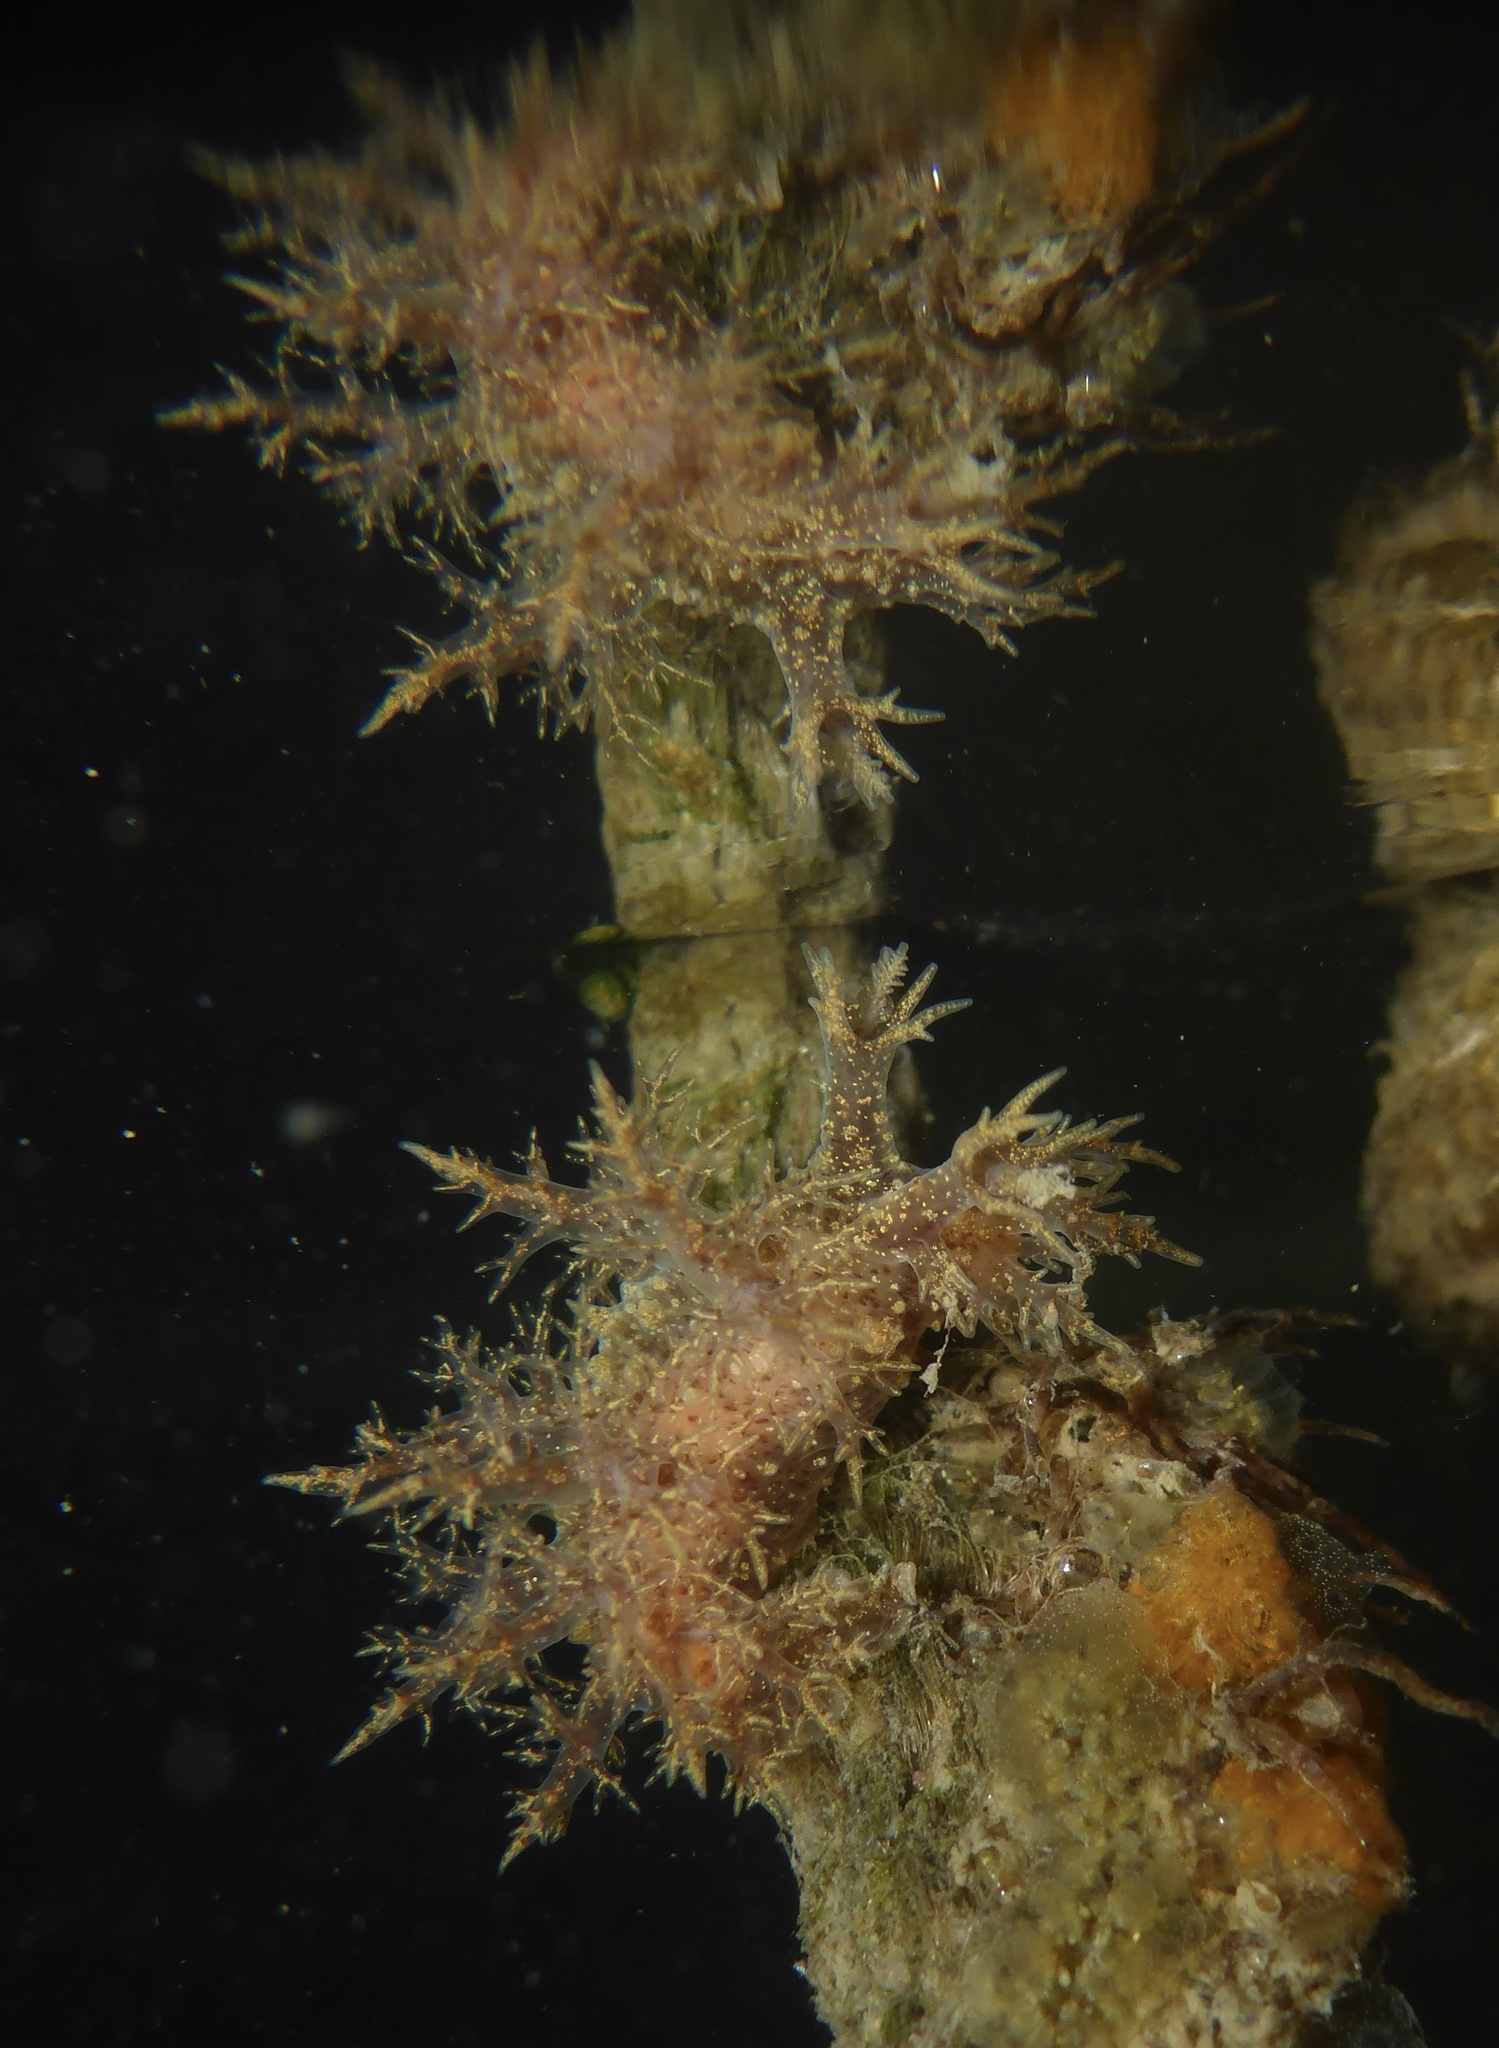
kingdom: Animalia
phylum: Mollusca
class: Gastropoda
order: Nudibranchia
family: Dendronotidae
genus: Dendronotus
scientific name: Dendronotus venustus
